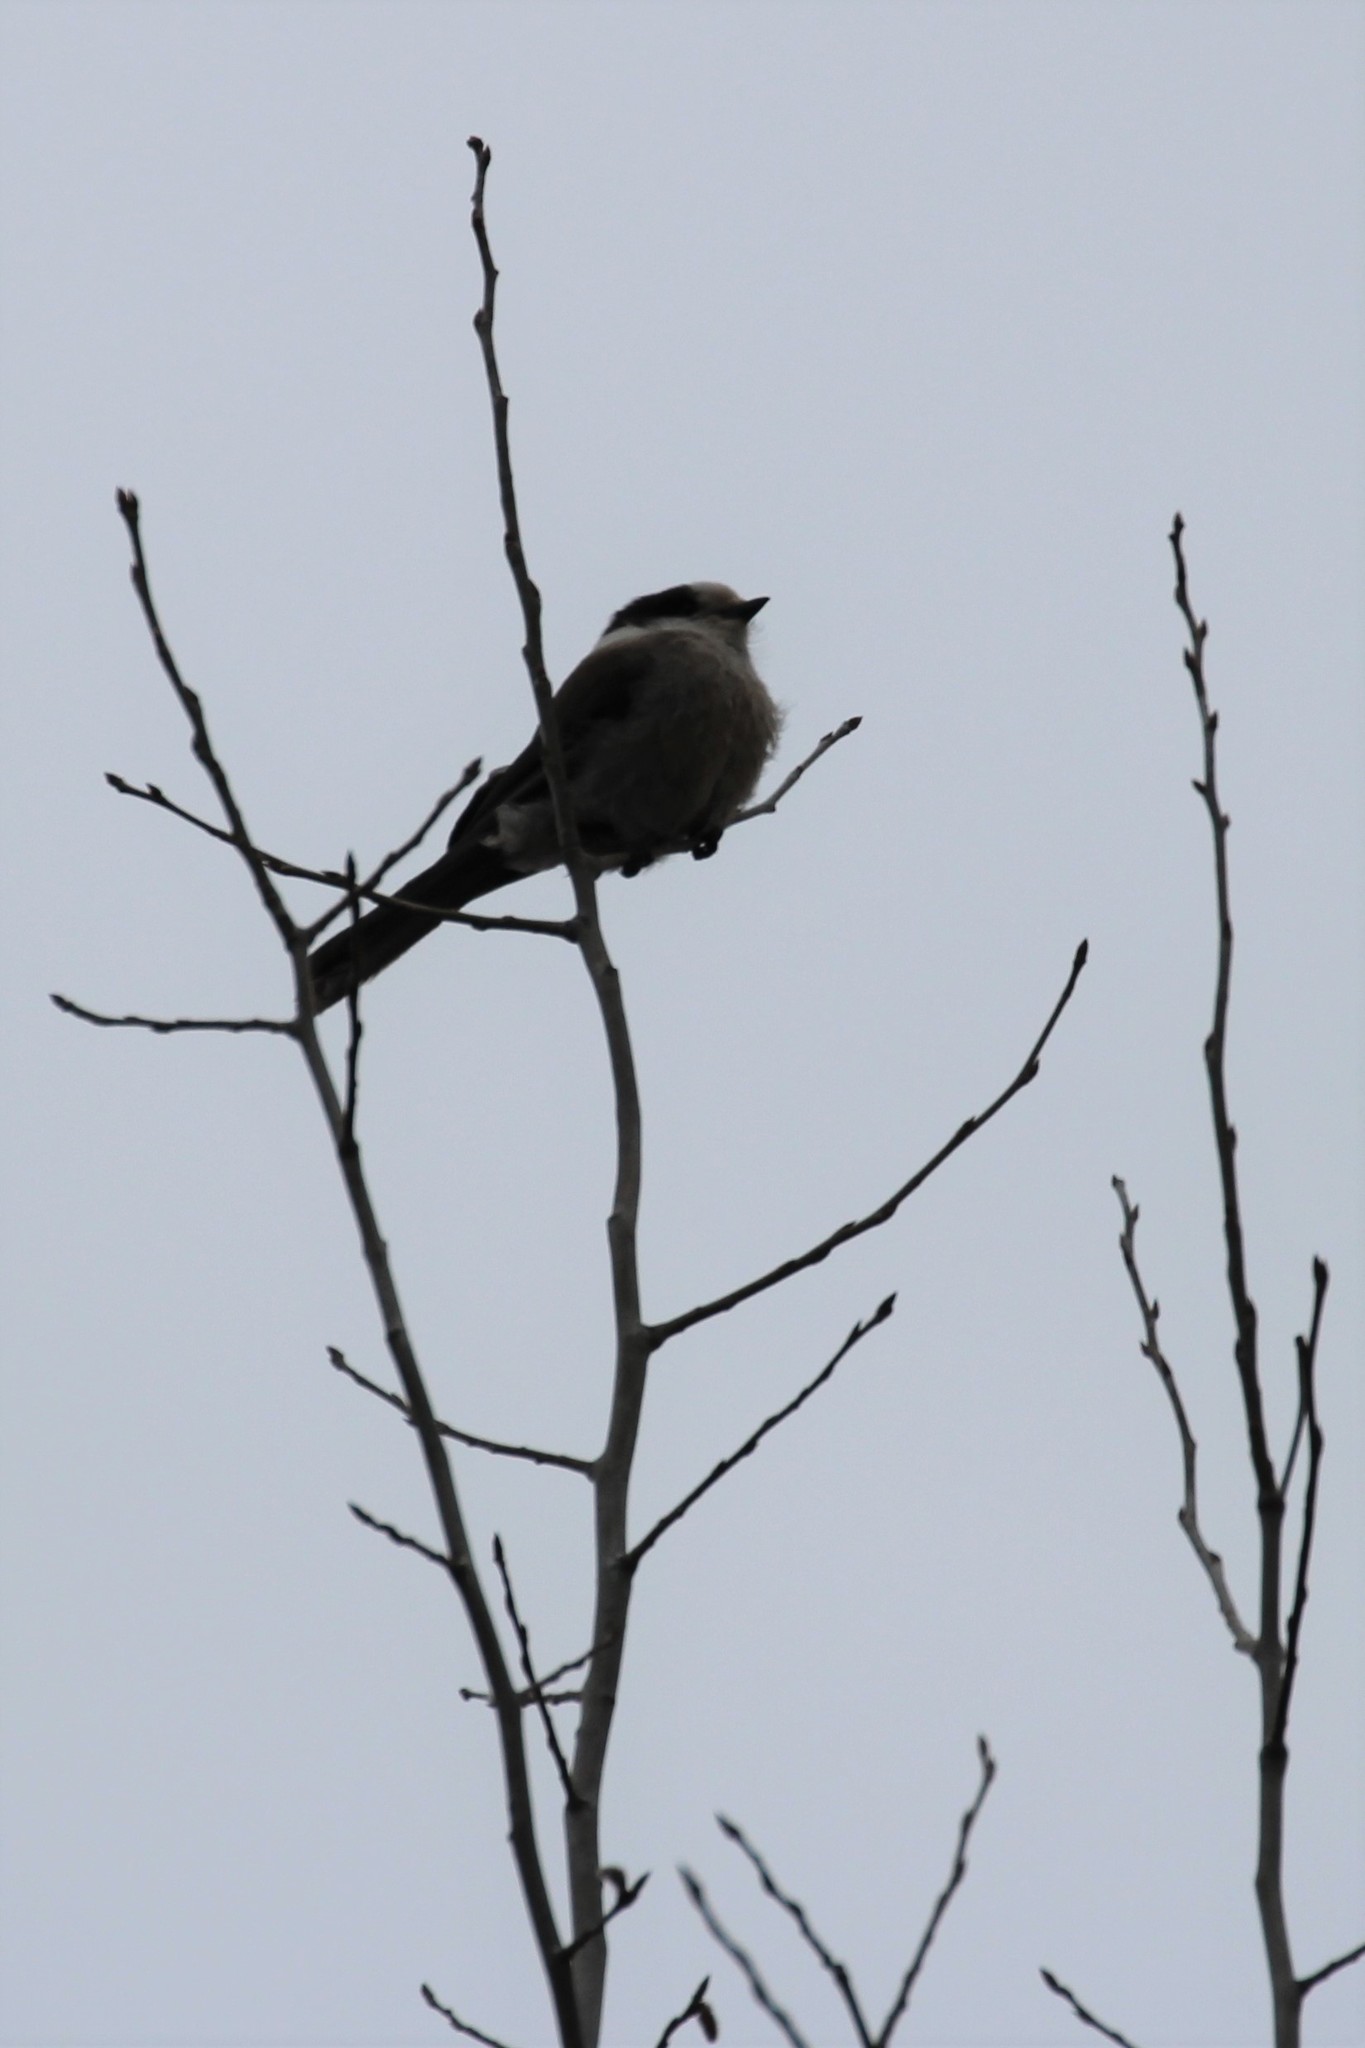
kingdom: Animalia
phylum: Chordata
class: Aves
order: Passeriformes
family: Corvidae
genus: Perisoreus
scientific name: Perisoreus canadensis
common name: Gray jay
